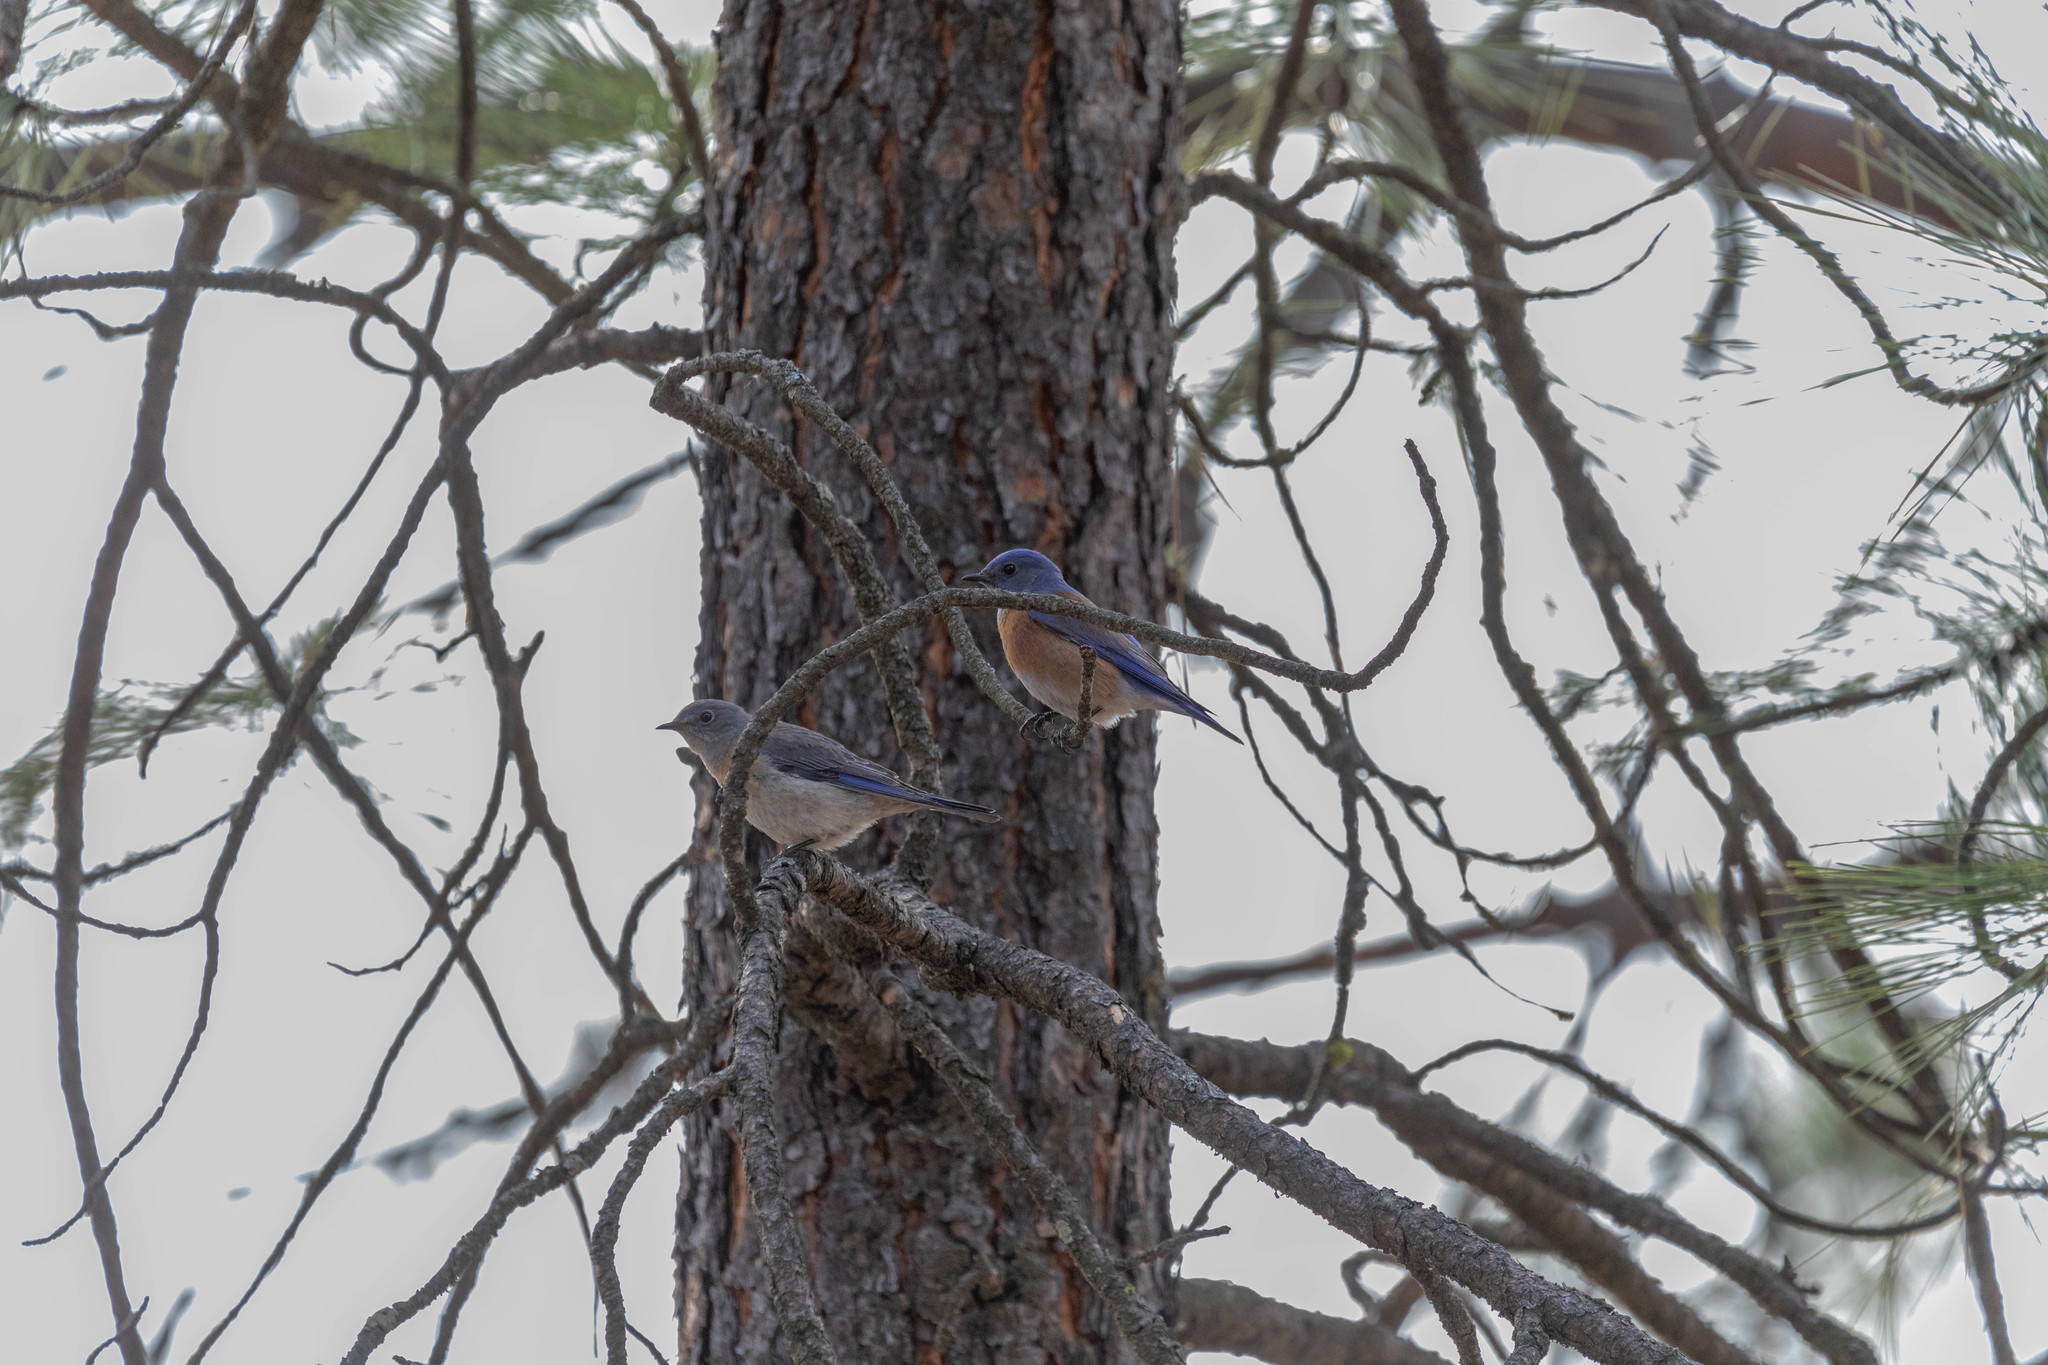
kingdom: Animalia
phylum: Chordata
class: Aves
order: Passeriformes
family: Turdidae
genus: Sialia
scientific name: Sialia mexicana
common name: Western bluebird
